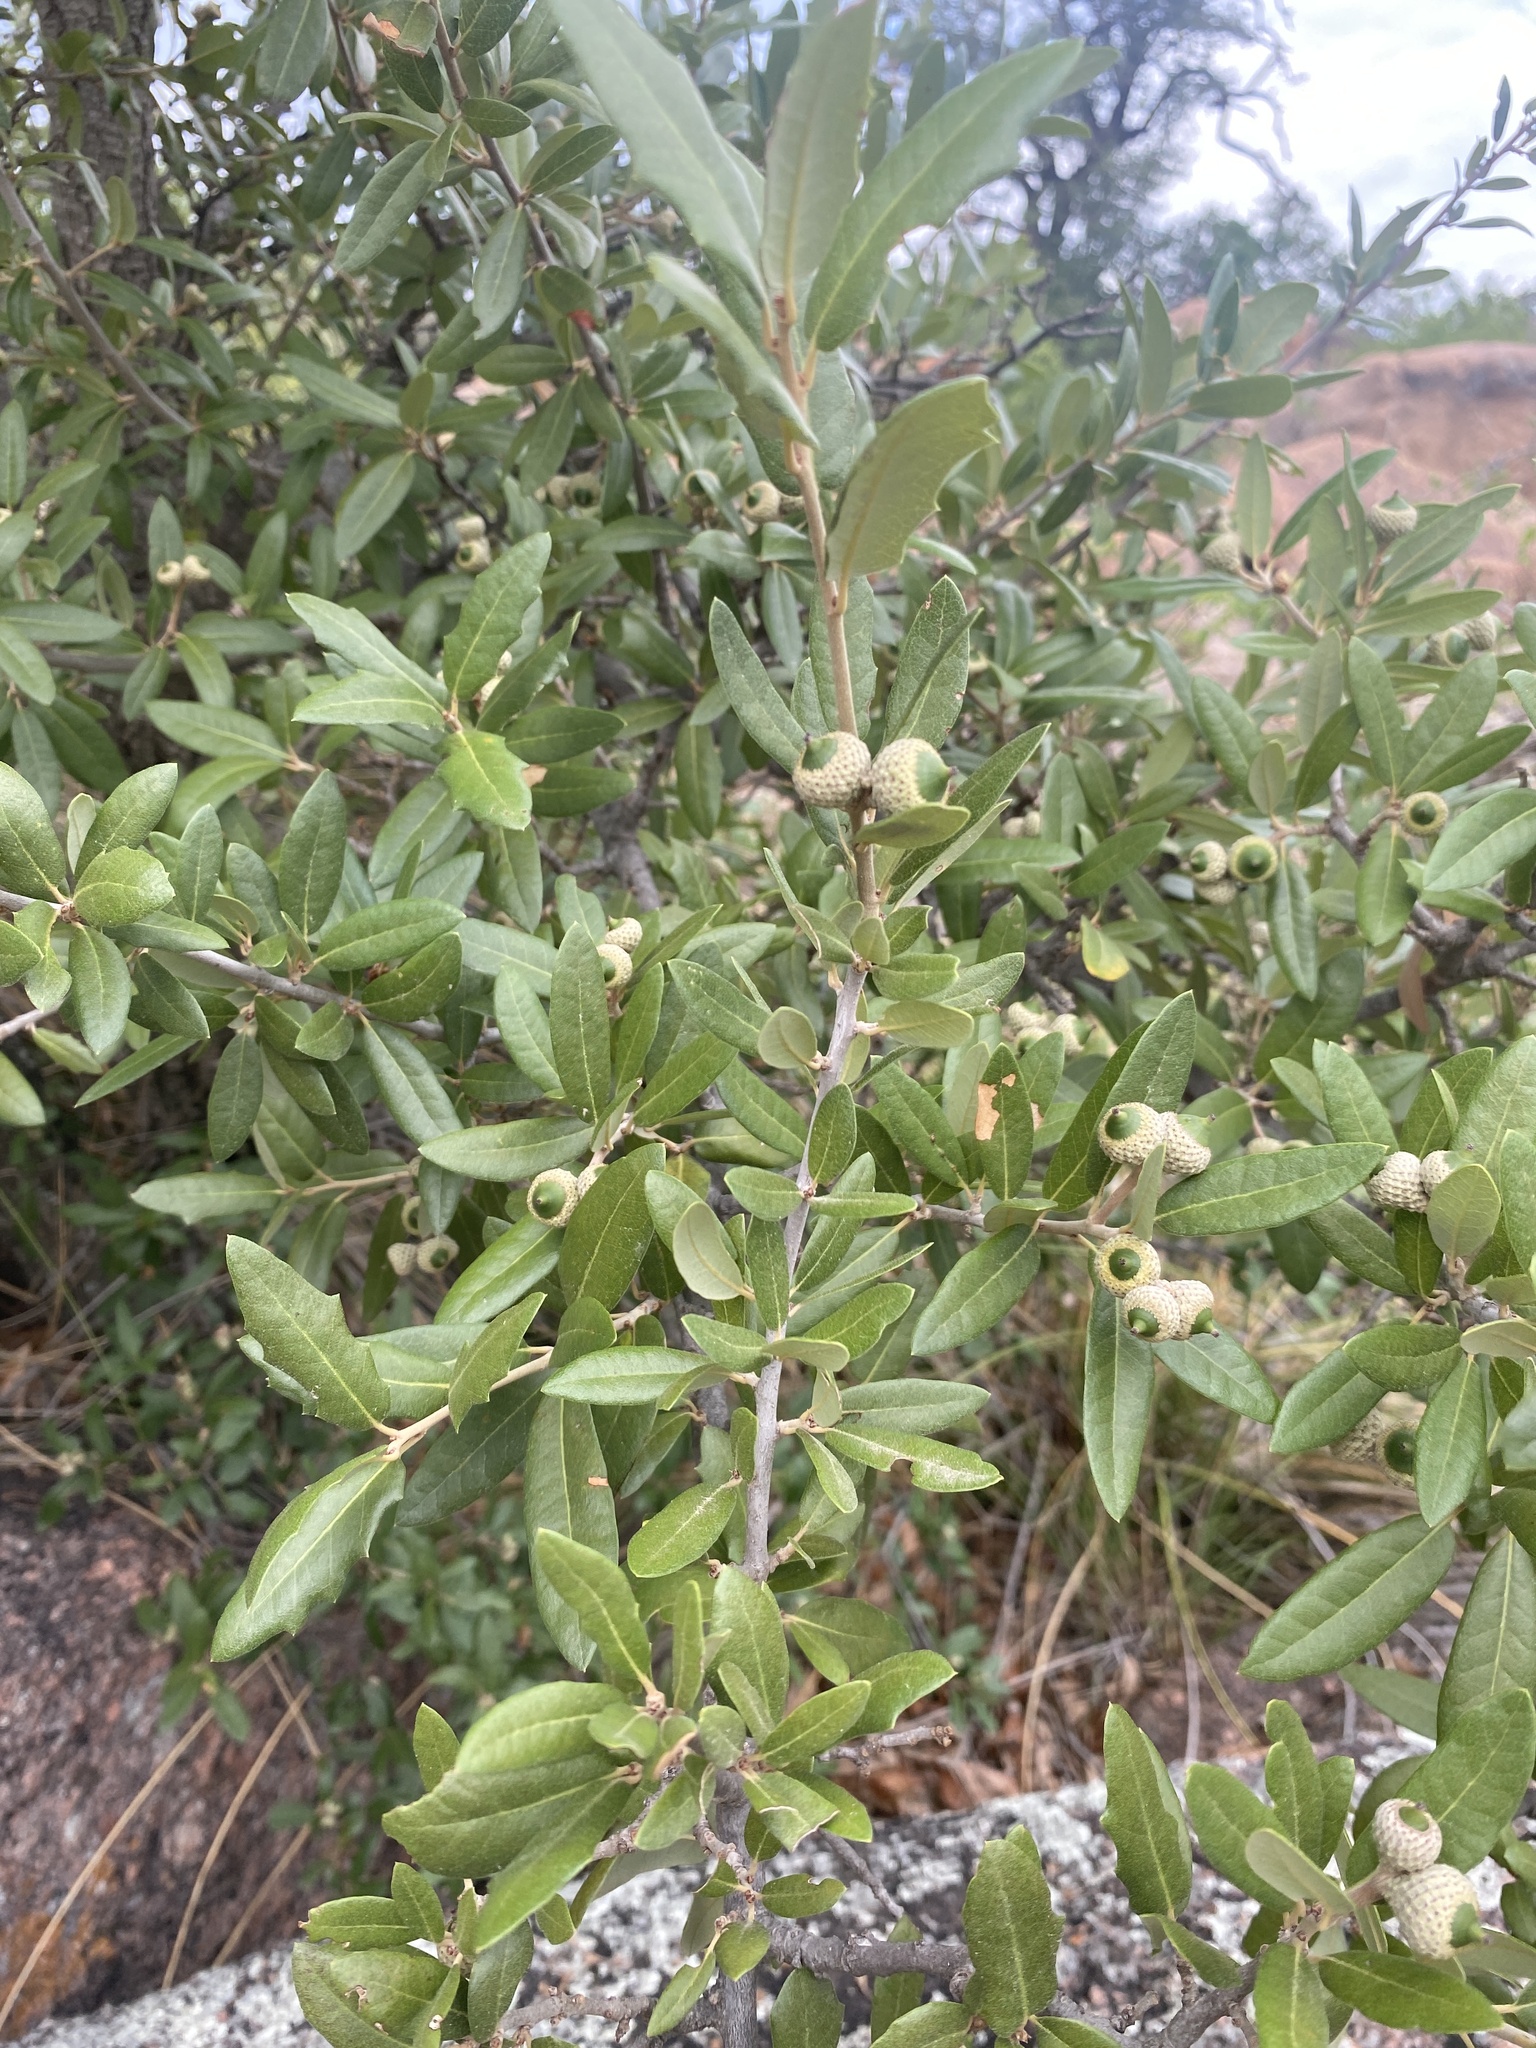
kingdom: Plantae
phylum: Tracheophyta
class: Magnoliopsida
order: Fagales
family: Fagaceae
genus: Quercus
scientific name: Quercus fusiformis
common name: Texas live oak
